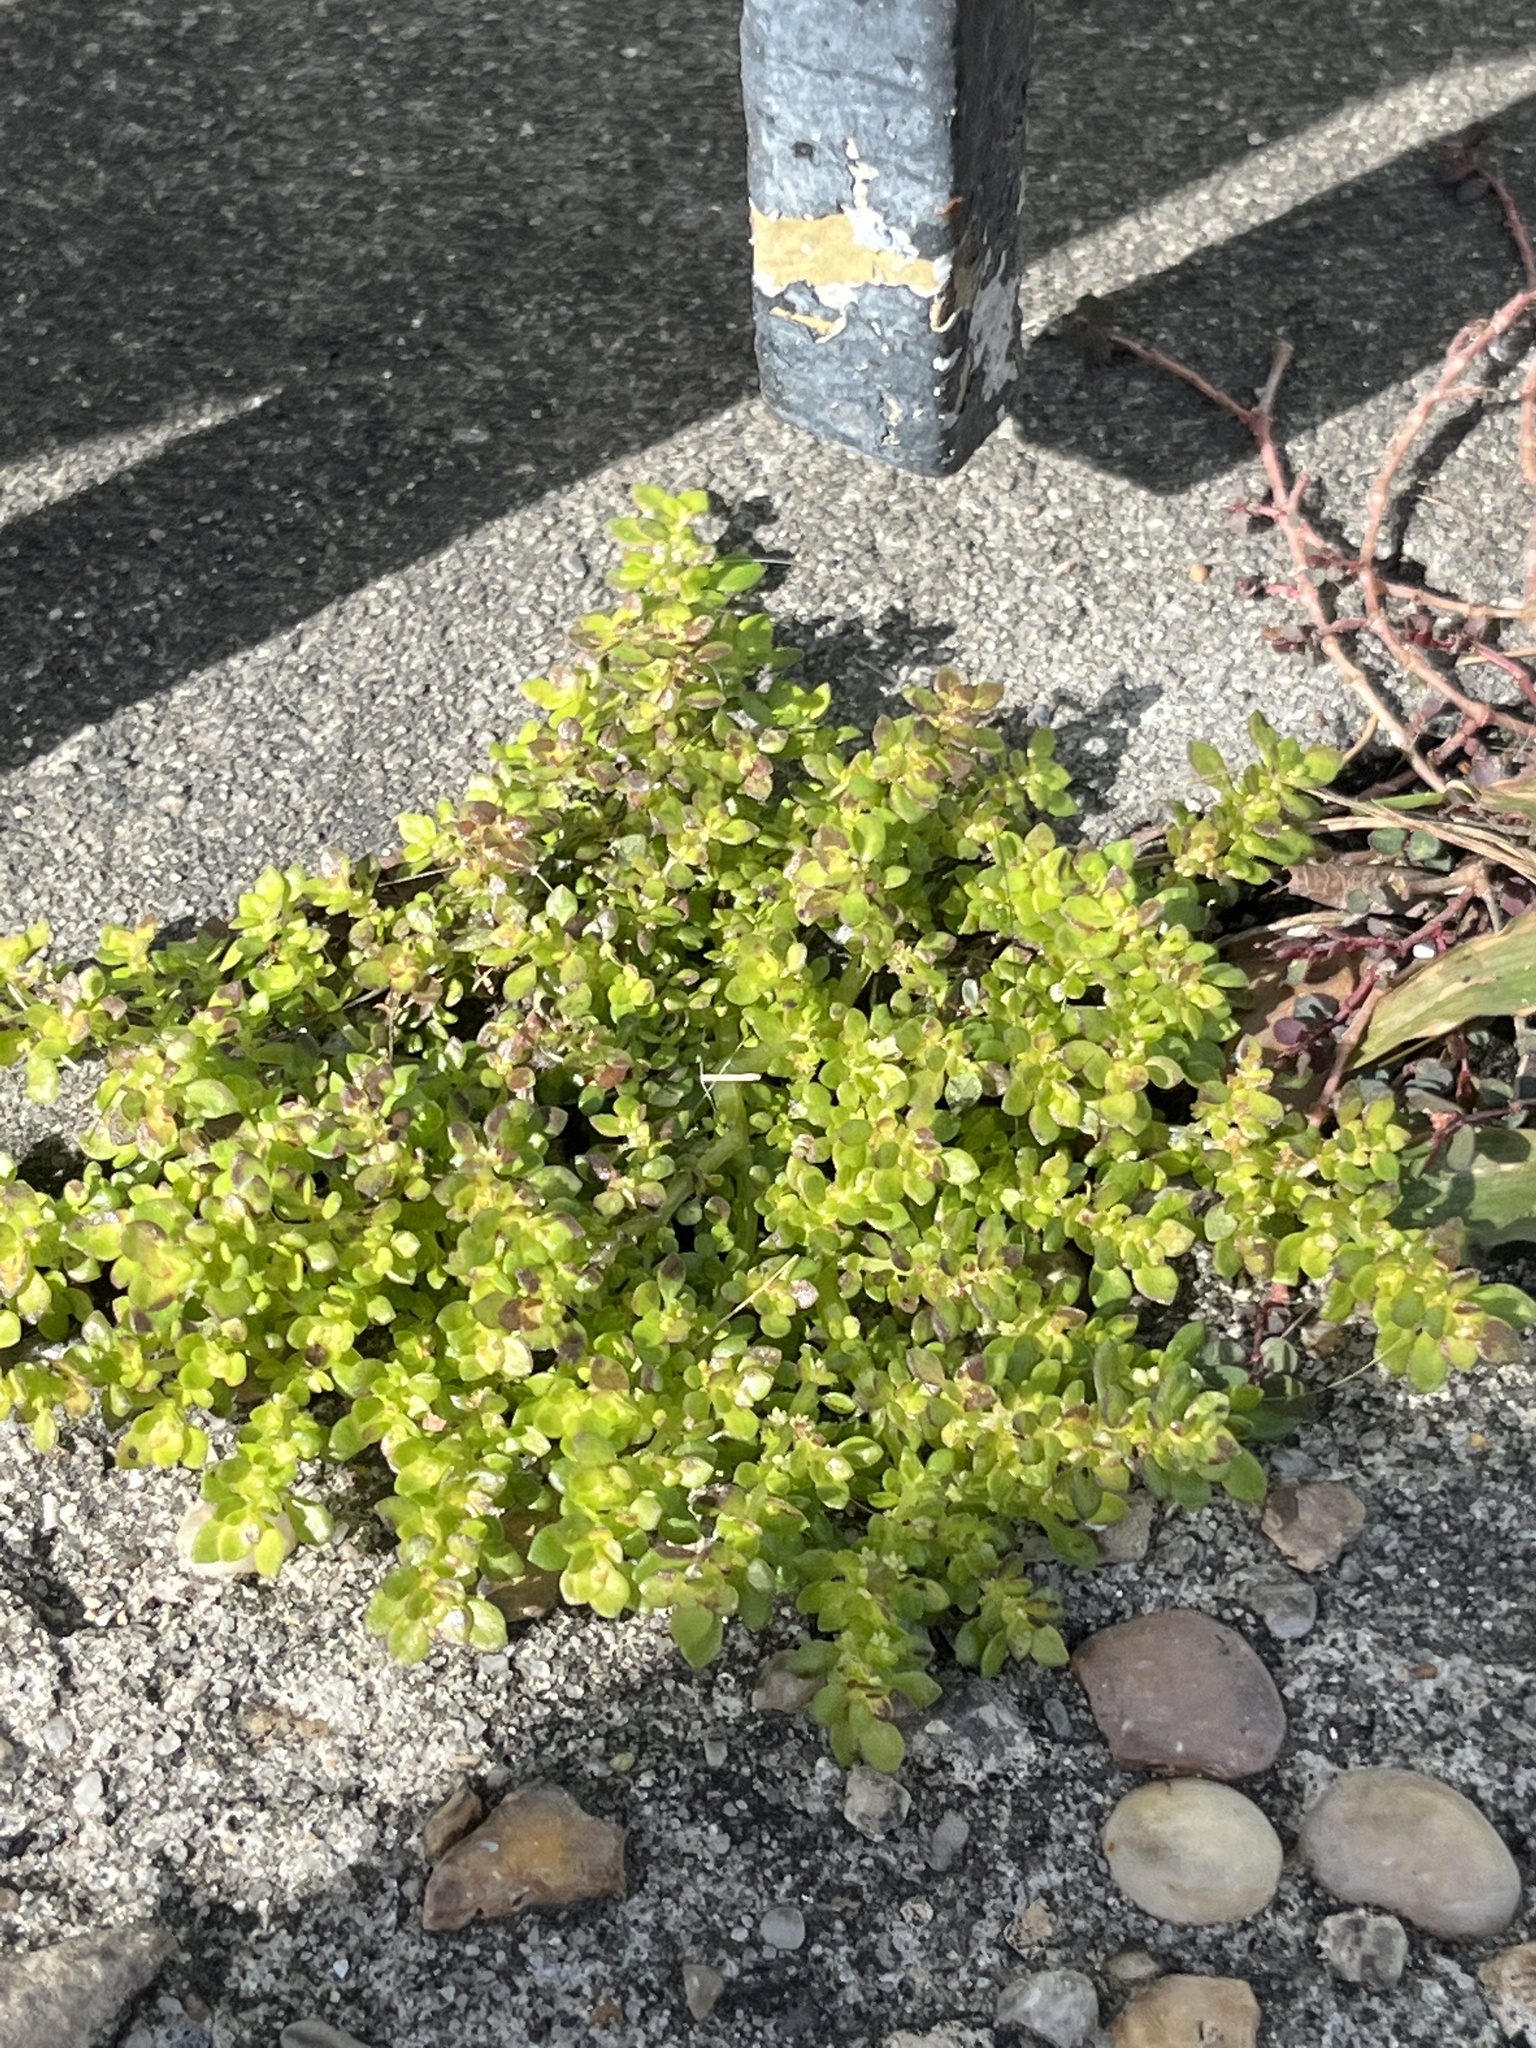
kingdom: Plantae
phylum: Tracheophyta
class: Magnoliopsida
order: Rosales
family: Urticaceae
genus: Pilea
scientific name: Pilea microphylla
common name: Artillery-plant
